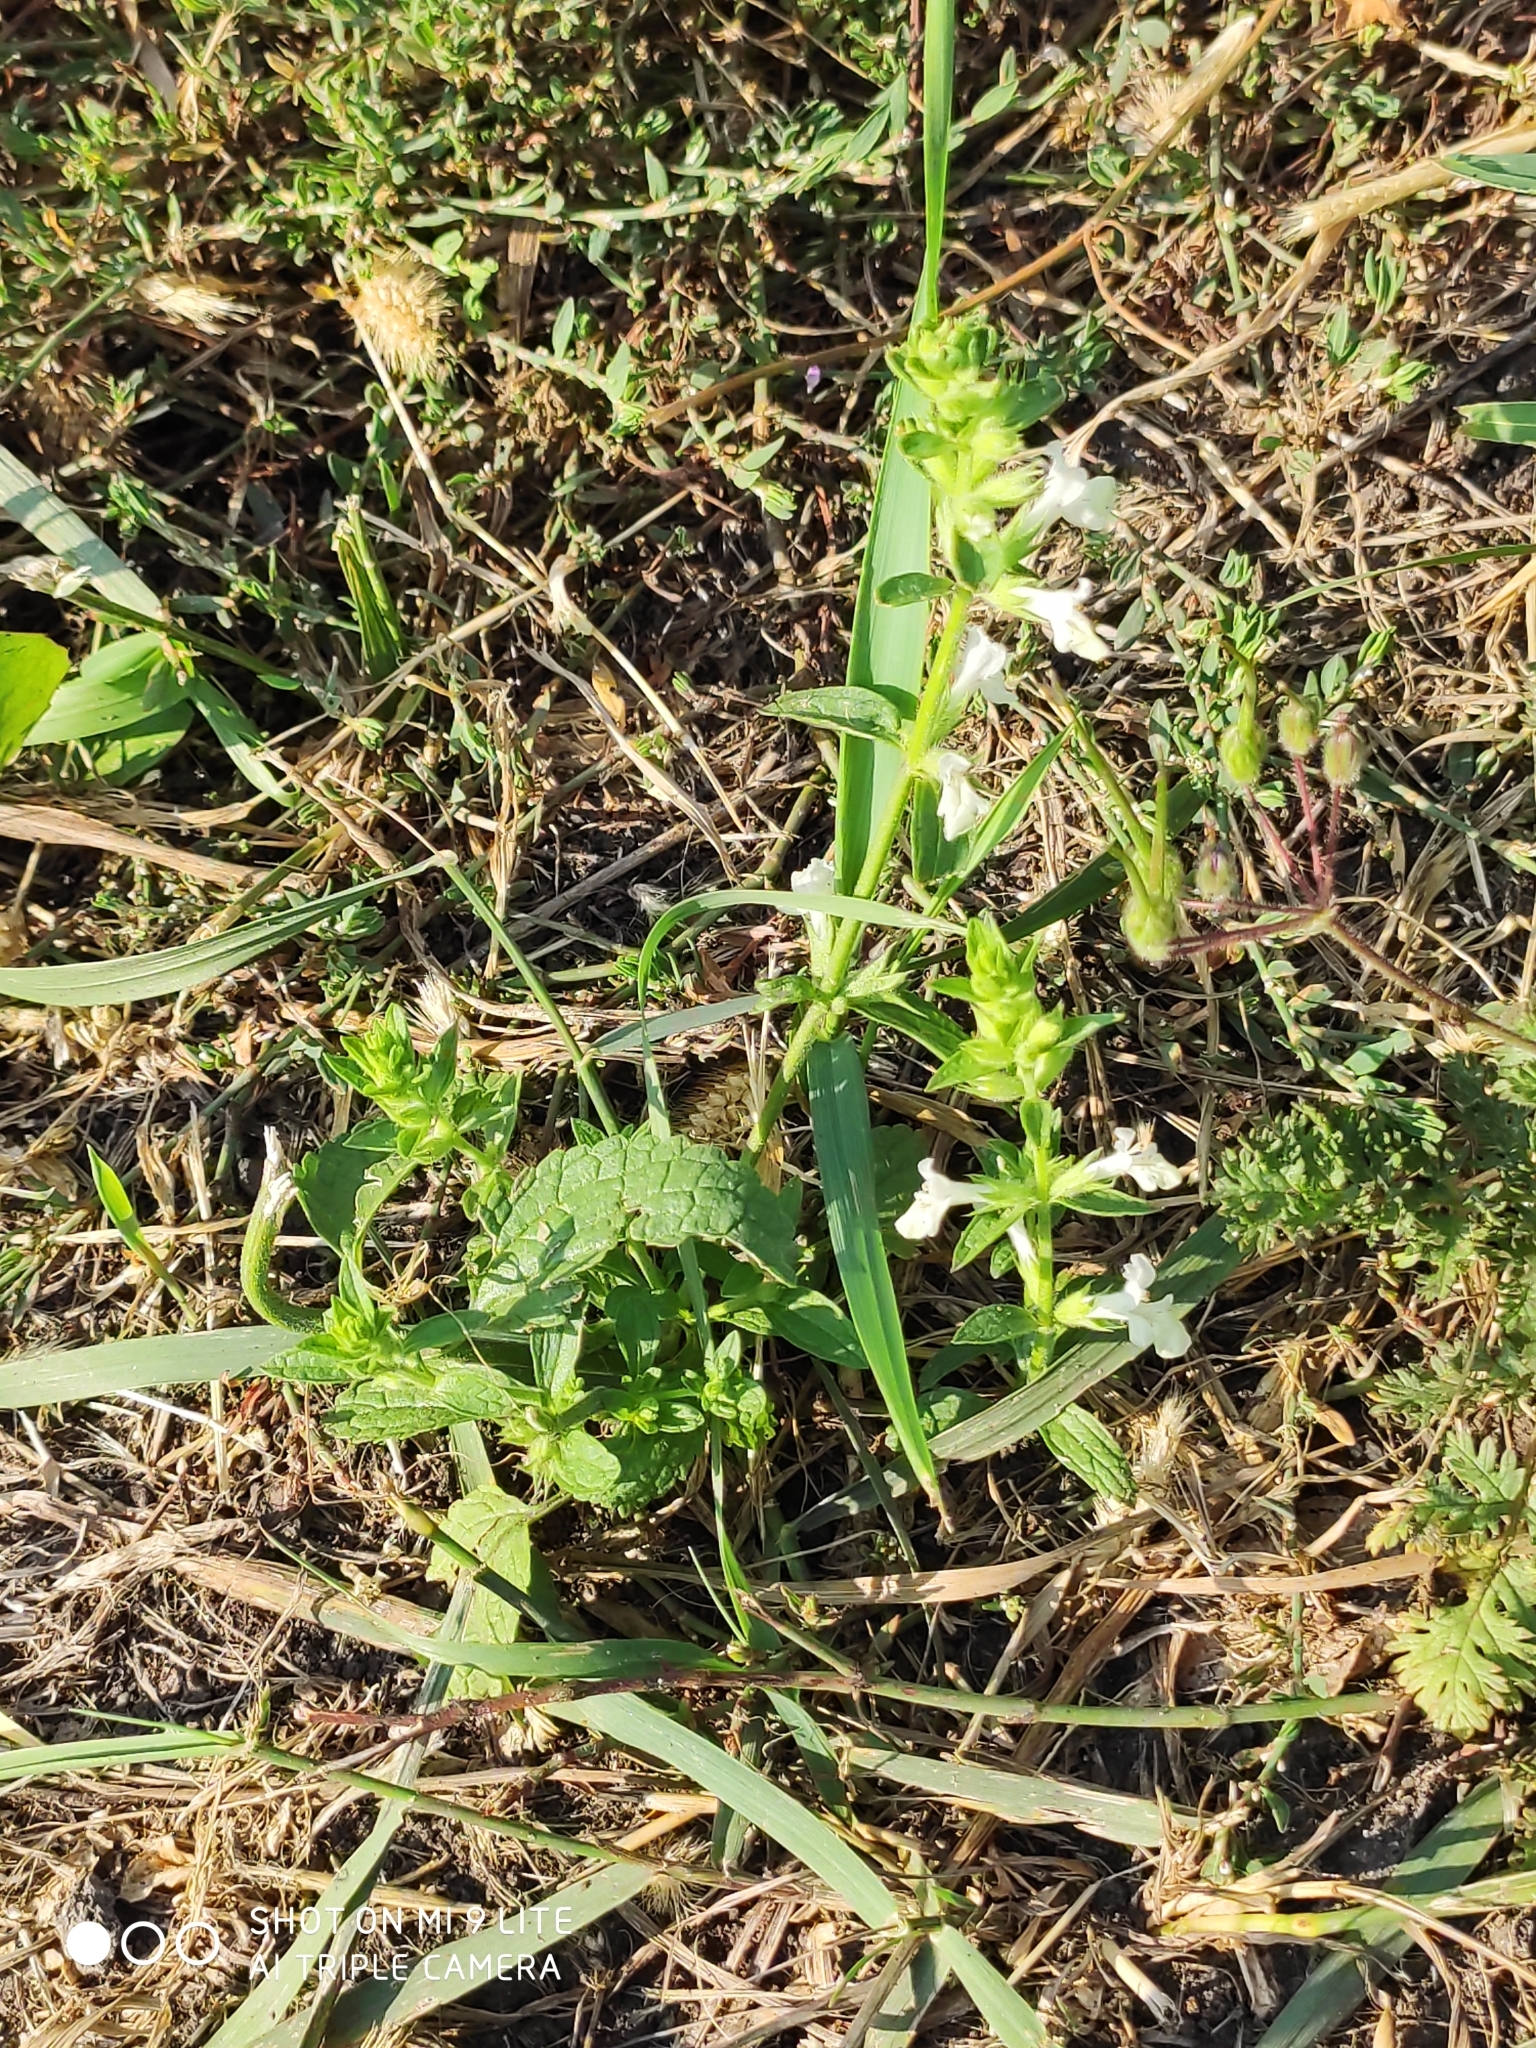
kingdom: Plantae
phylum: Tracheophyta
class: Magnoliopsida
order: Lamiales
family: Lamiaceae
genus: Stachys
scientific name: Stachys annua
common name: Annual yellow-woundwort
